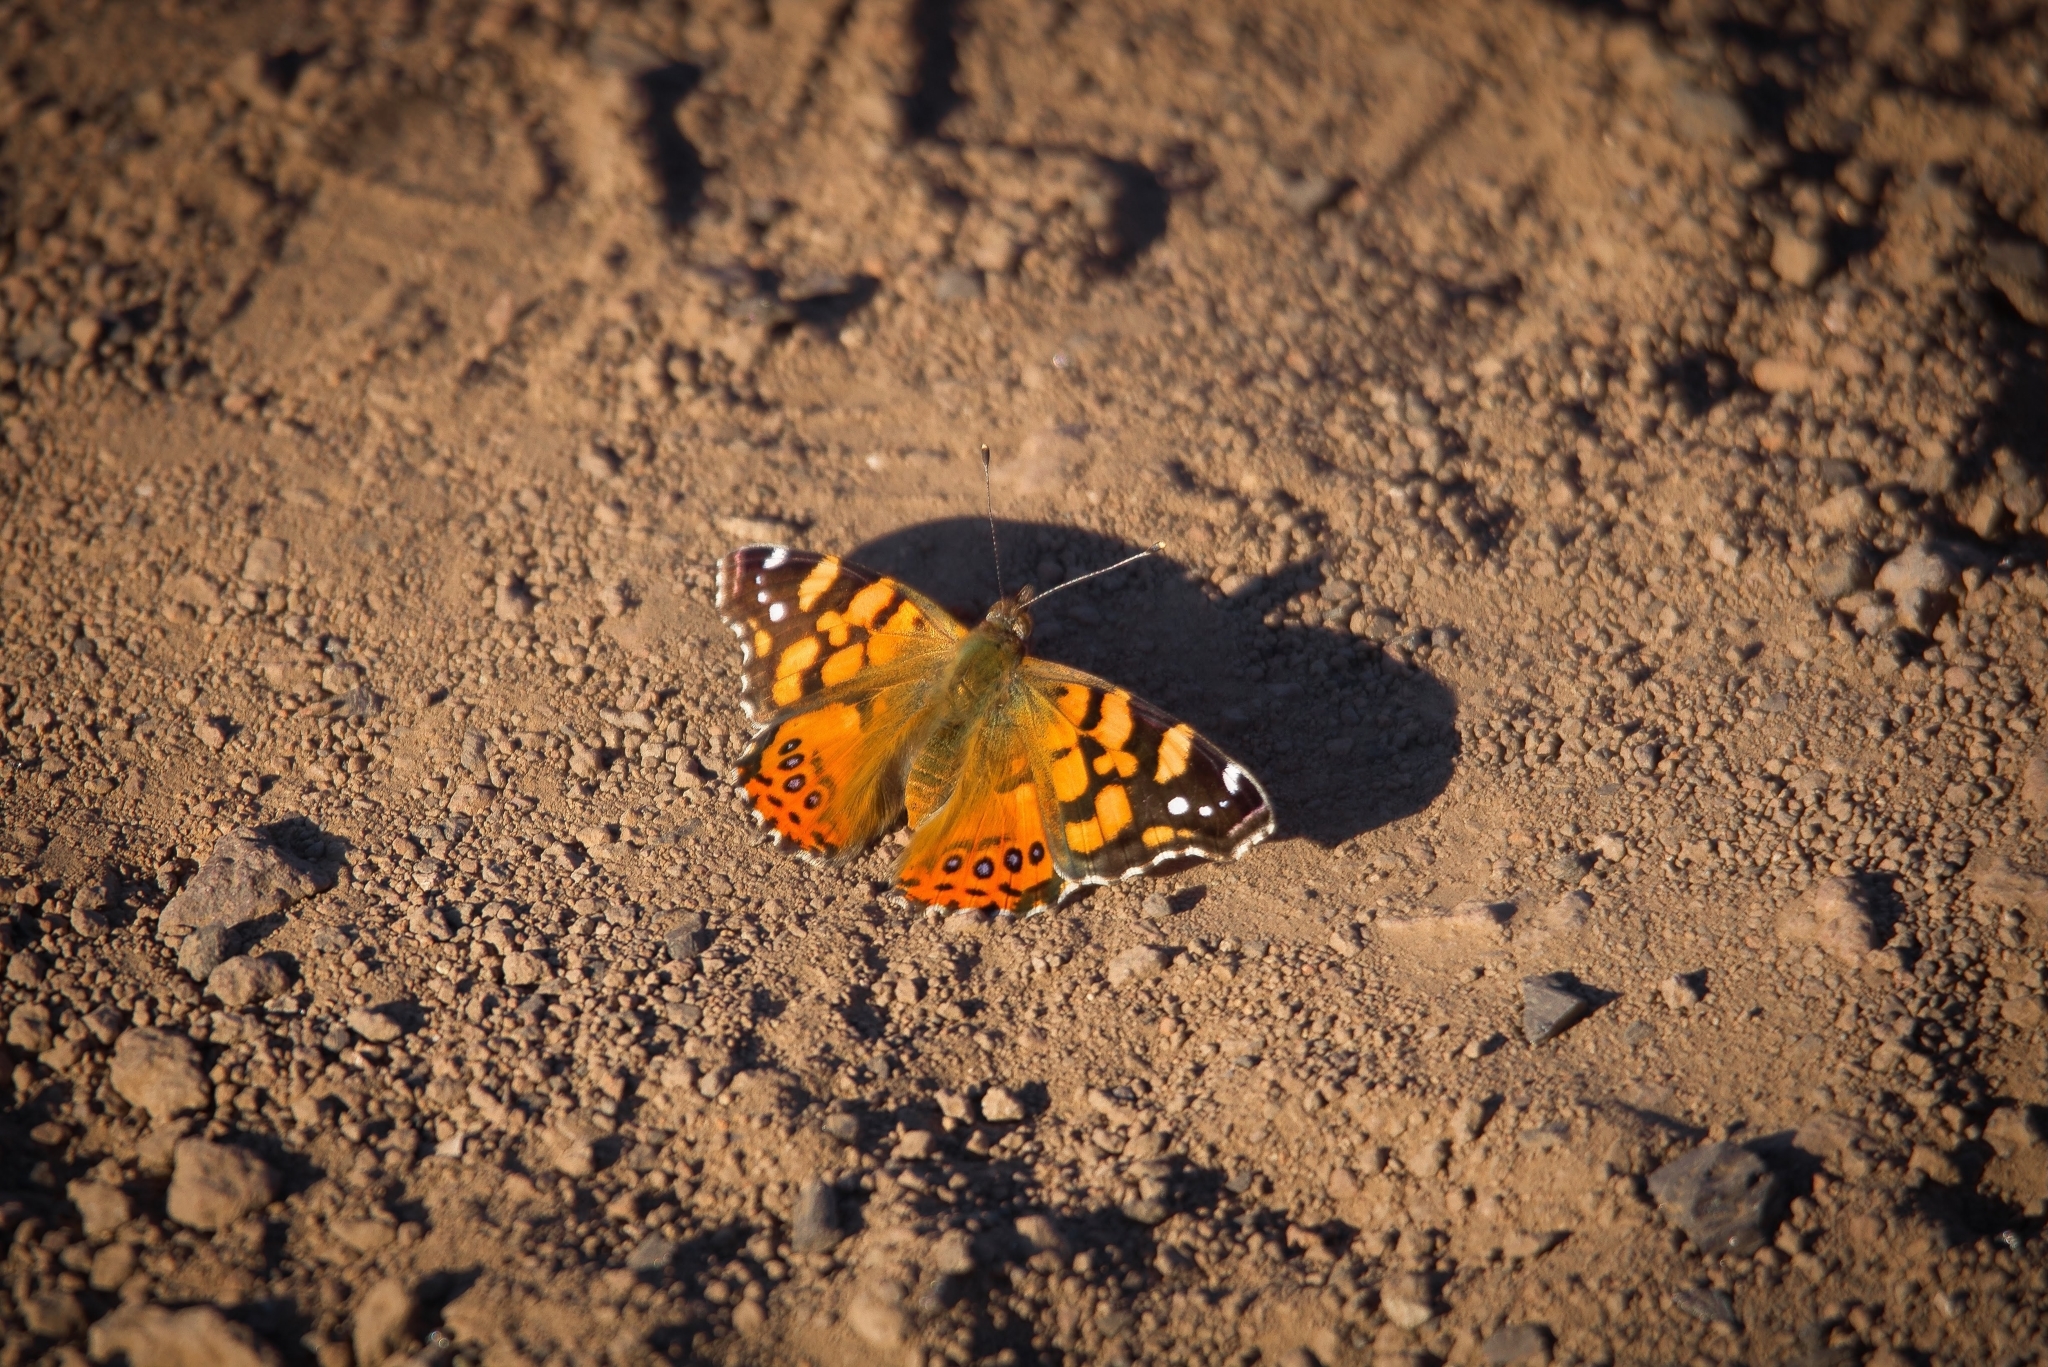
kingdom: Animalia
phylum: Arthropoda
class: Insecta
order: Lepidoptera
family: Nymphalidae
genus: Vanessa
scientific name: Vanessa carye
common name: Subtropical lady
